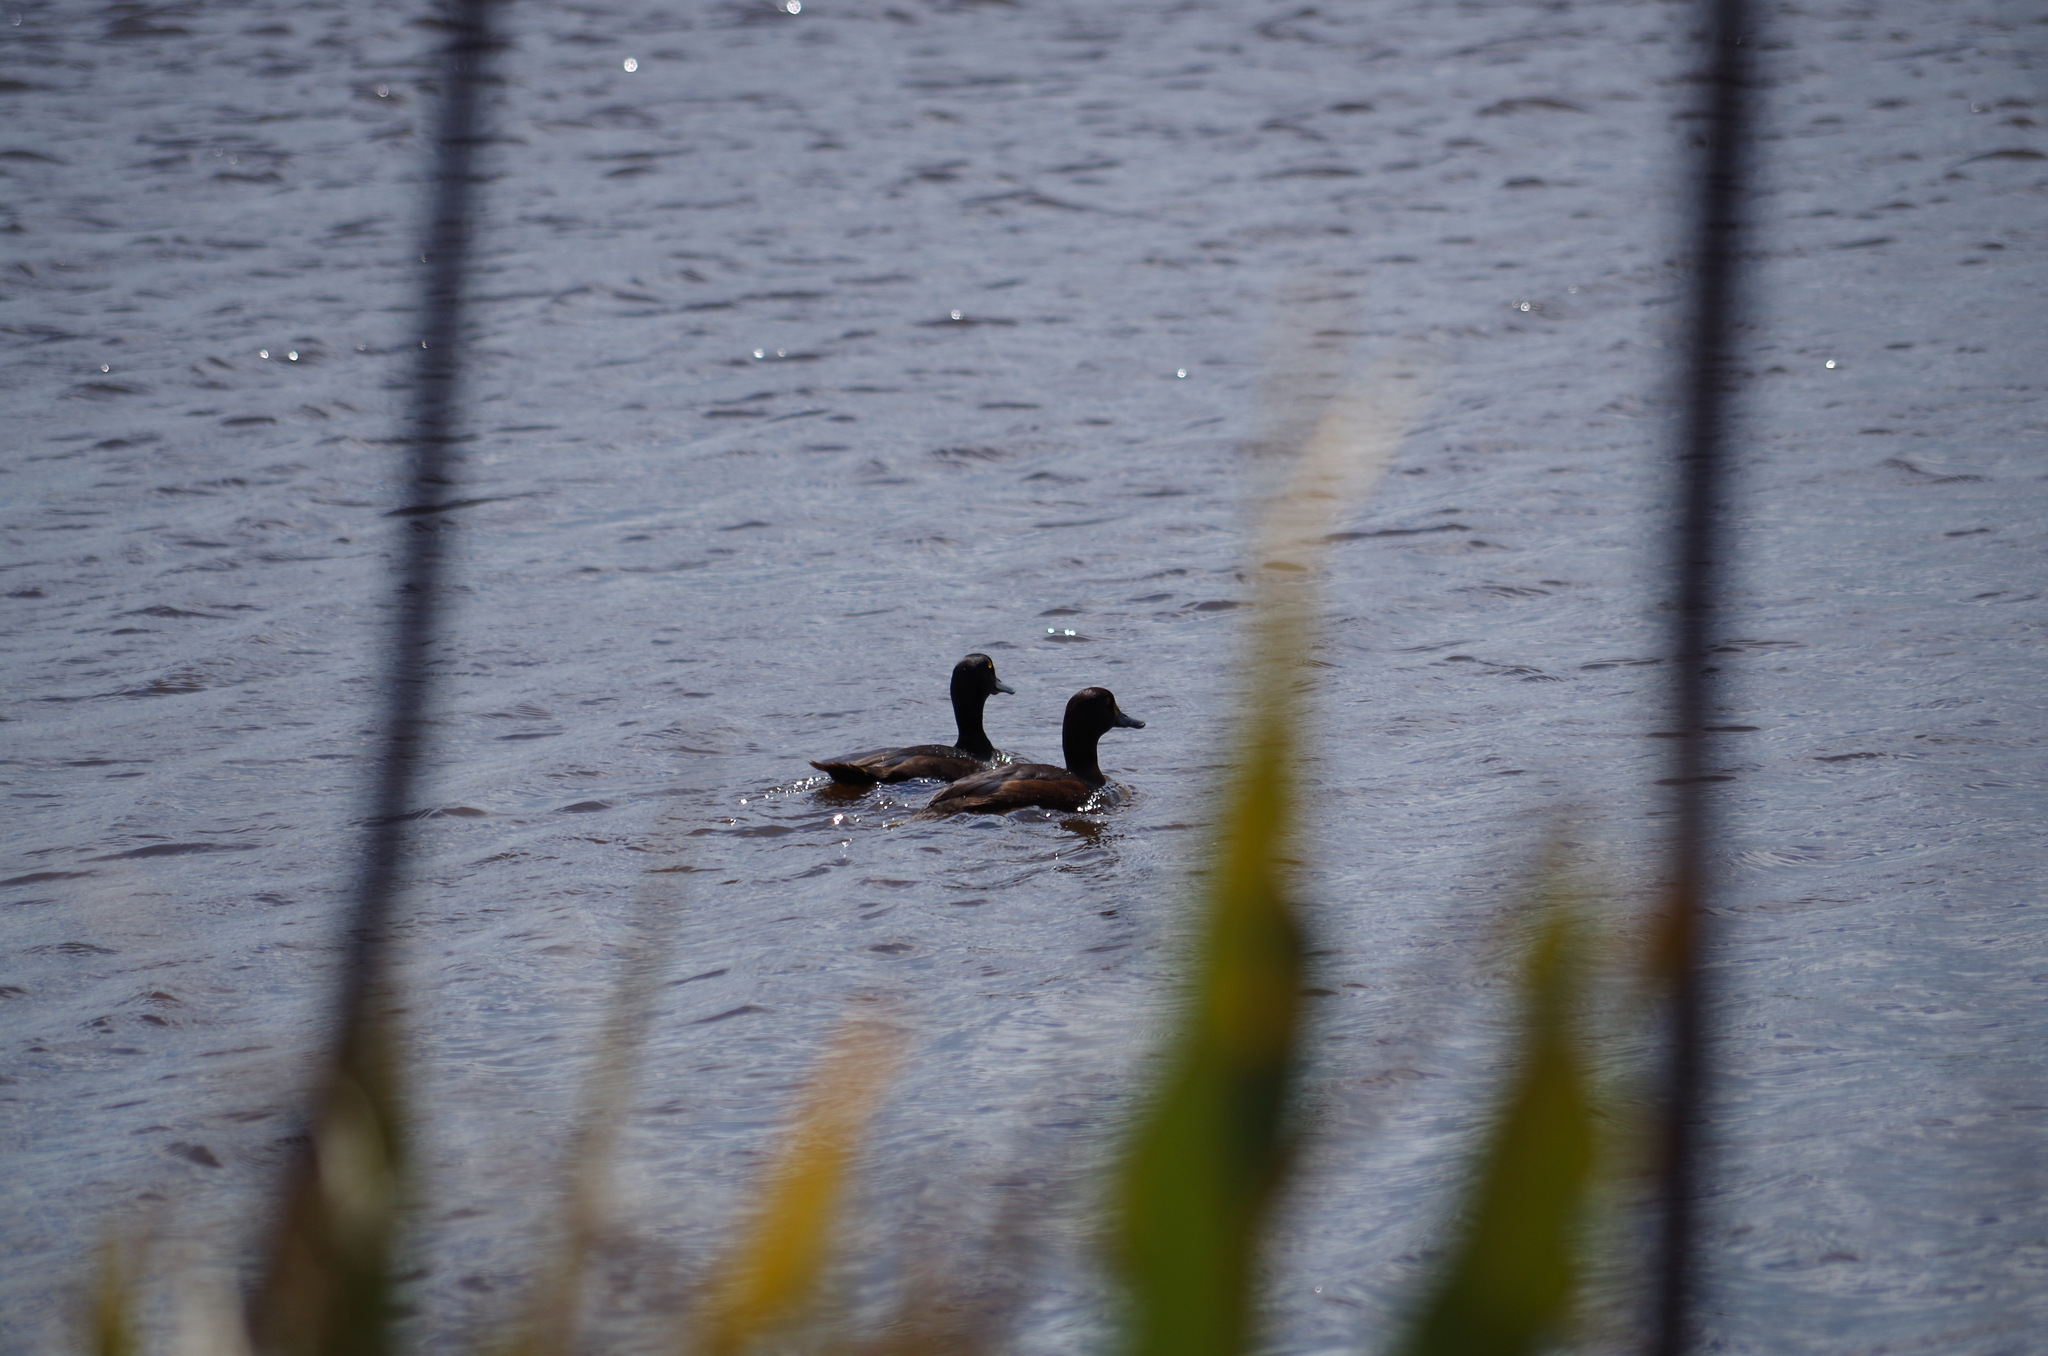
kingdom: Animalia
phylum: Chordata
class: Aves
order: Anseriformes
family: Anatidae
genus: Aythya
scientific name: Aythya novaeseelandiae
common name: New zealand scaup
